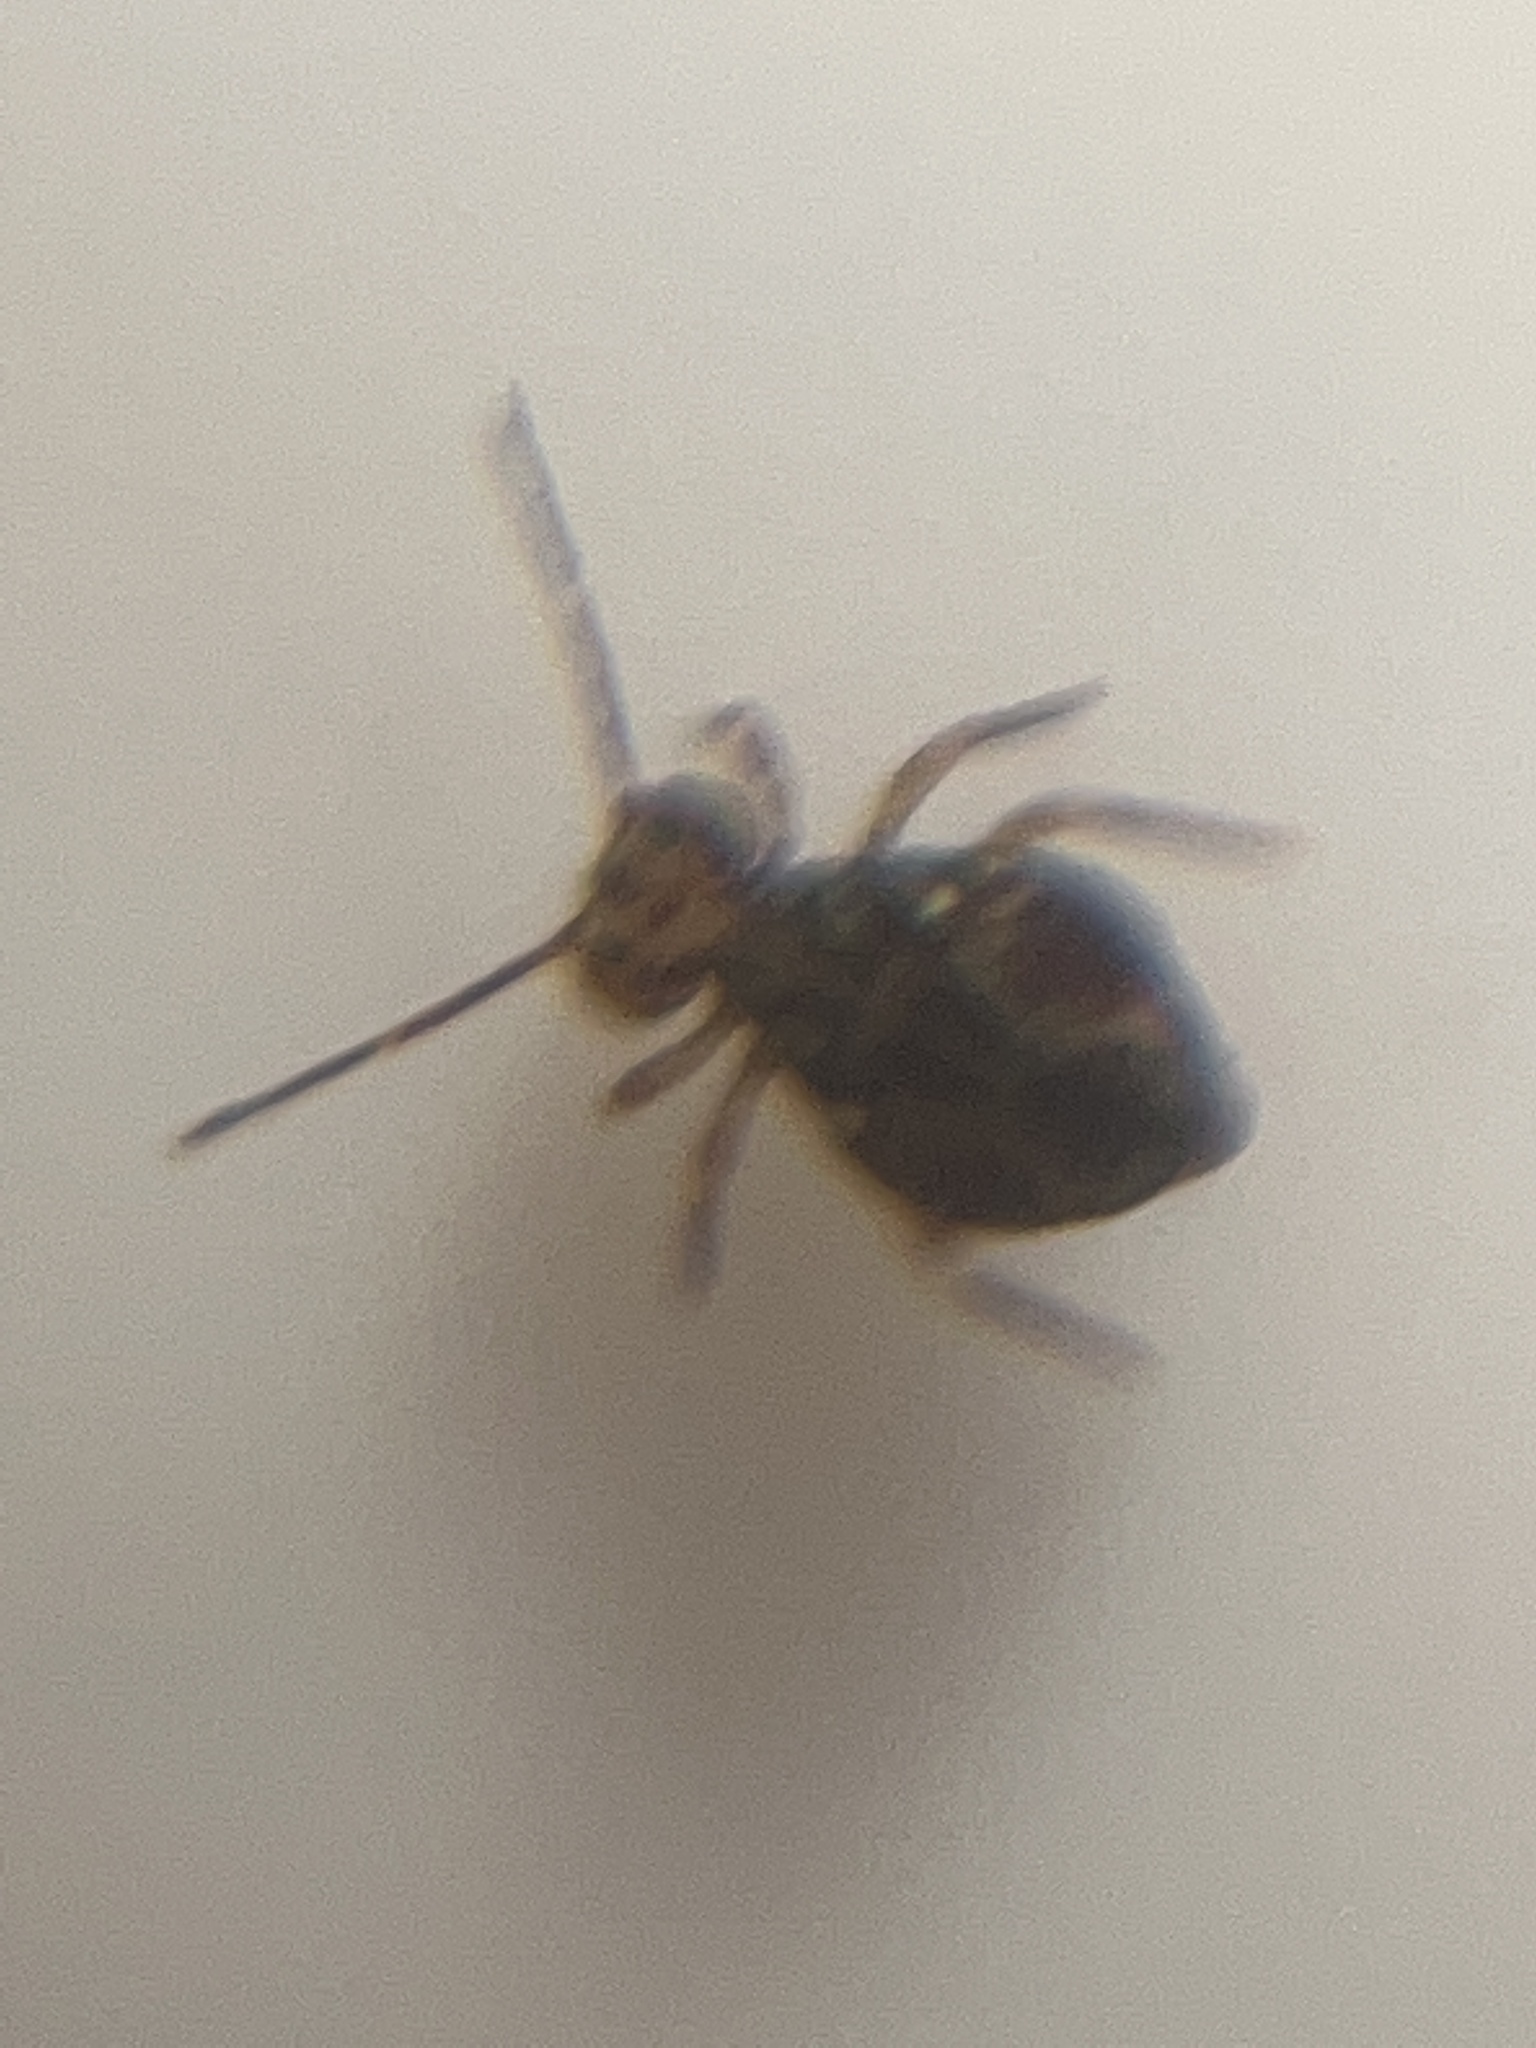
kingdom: Animalia
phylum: Arthropoda
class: Collembola
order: Symphypleona
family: Dicyrtomidae
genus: Dicyrtomina
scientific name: Dicyrtomina saundersi
